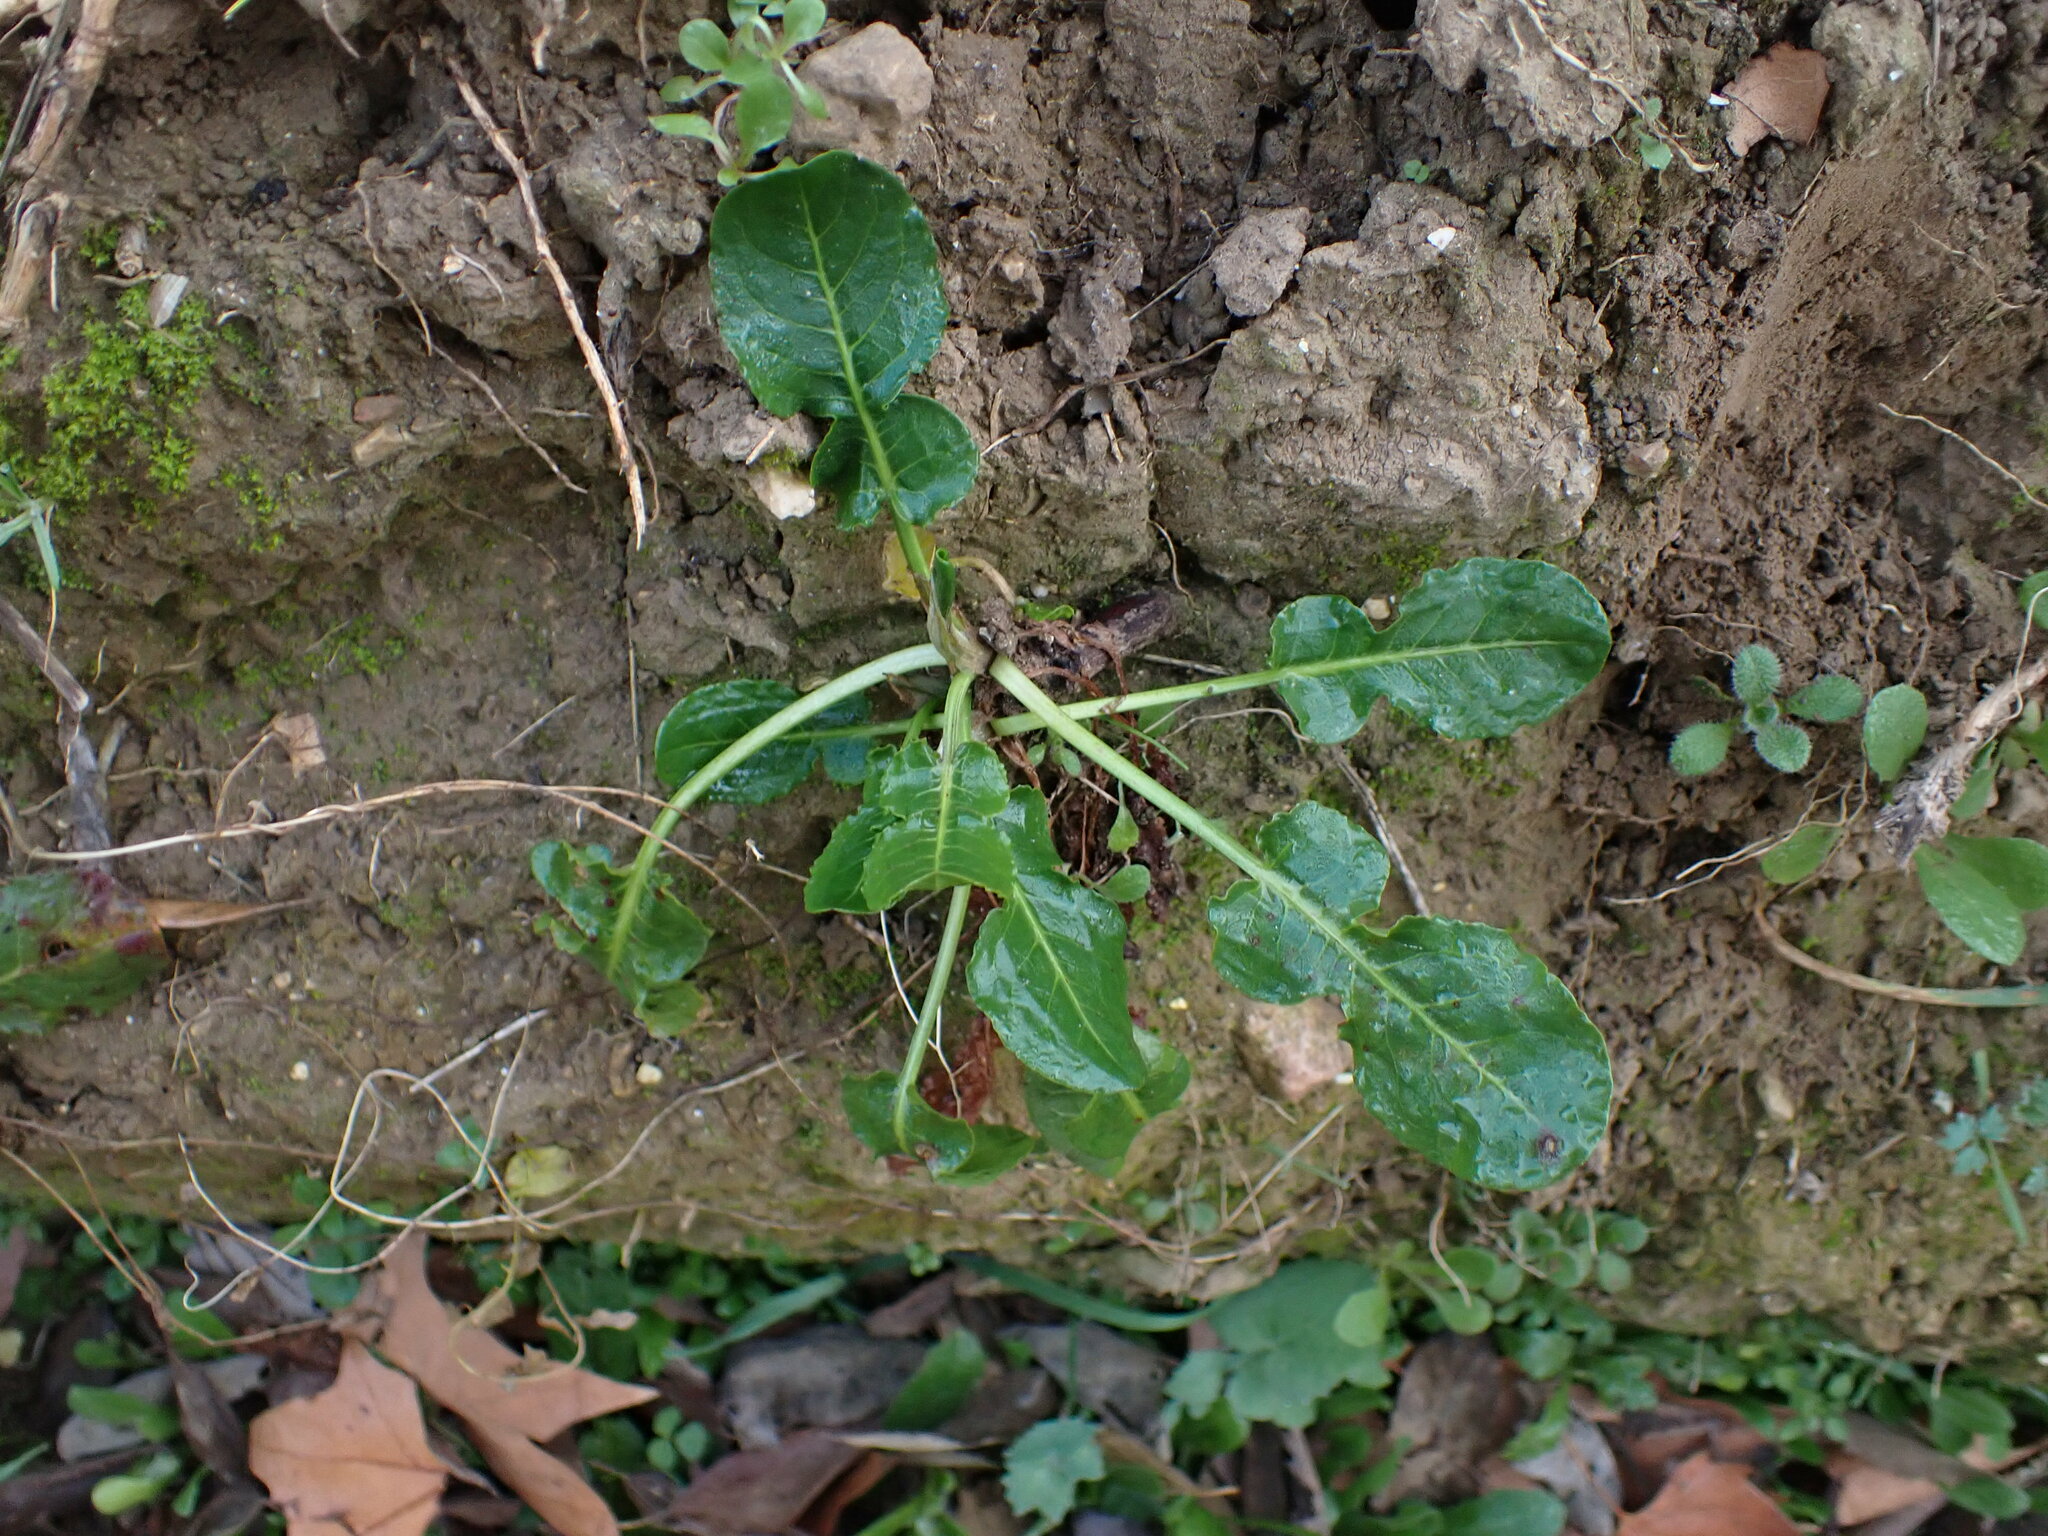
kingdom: Plantae
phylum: Tracheophyta
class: Magnoliopsida
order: Caryophyllales
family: Polygonaceae
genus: Rumex
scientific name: Rumex pulcher
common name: Fiddle dock
